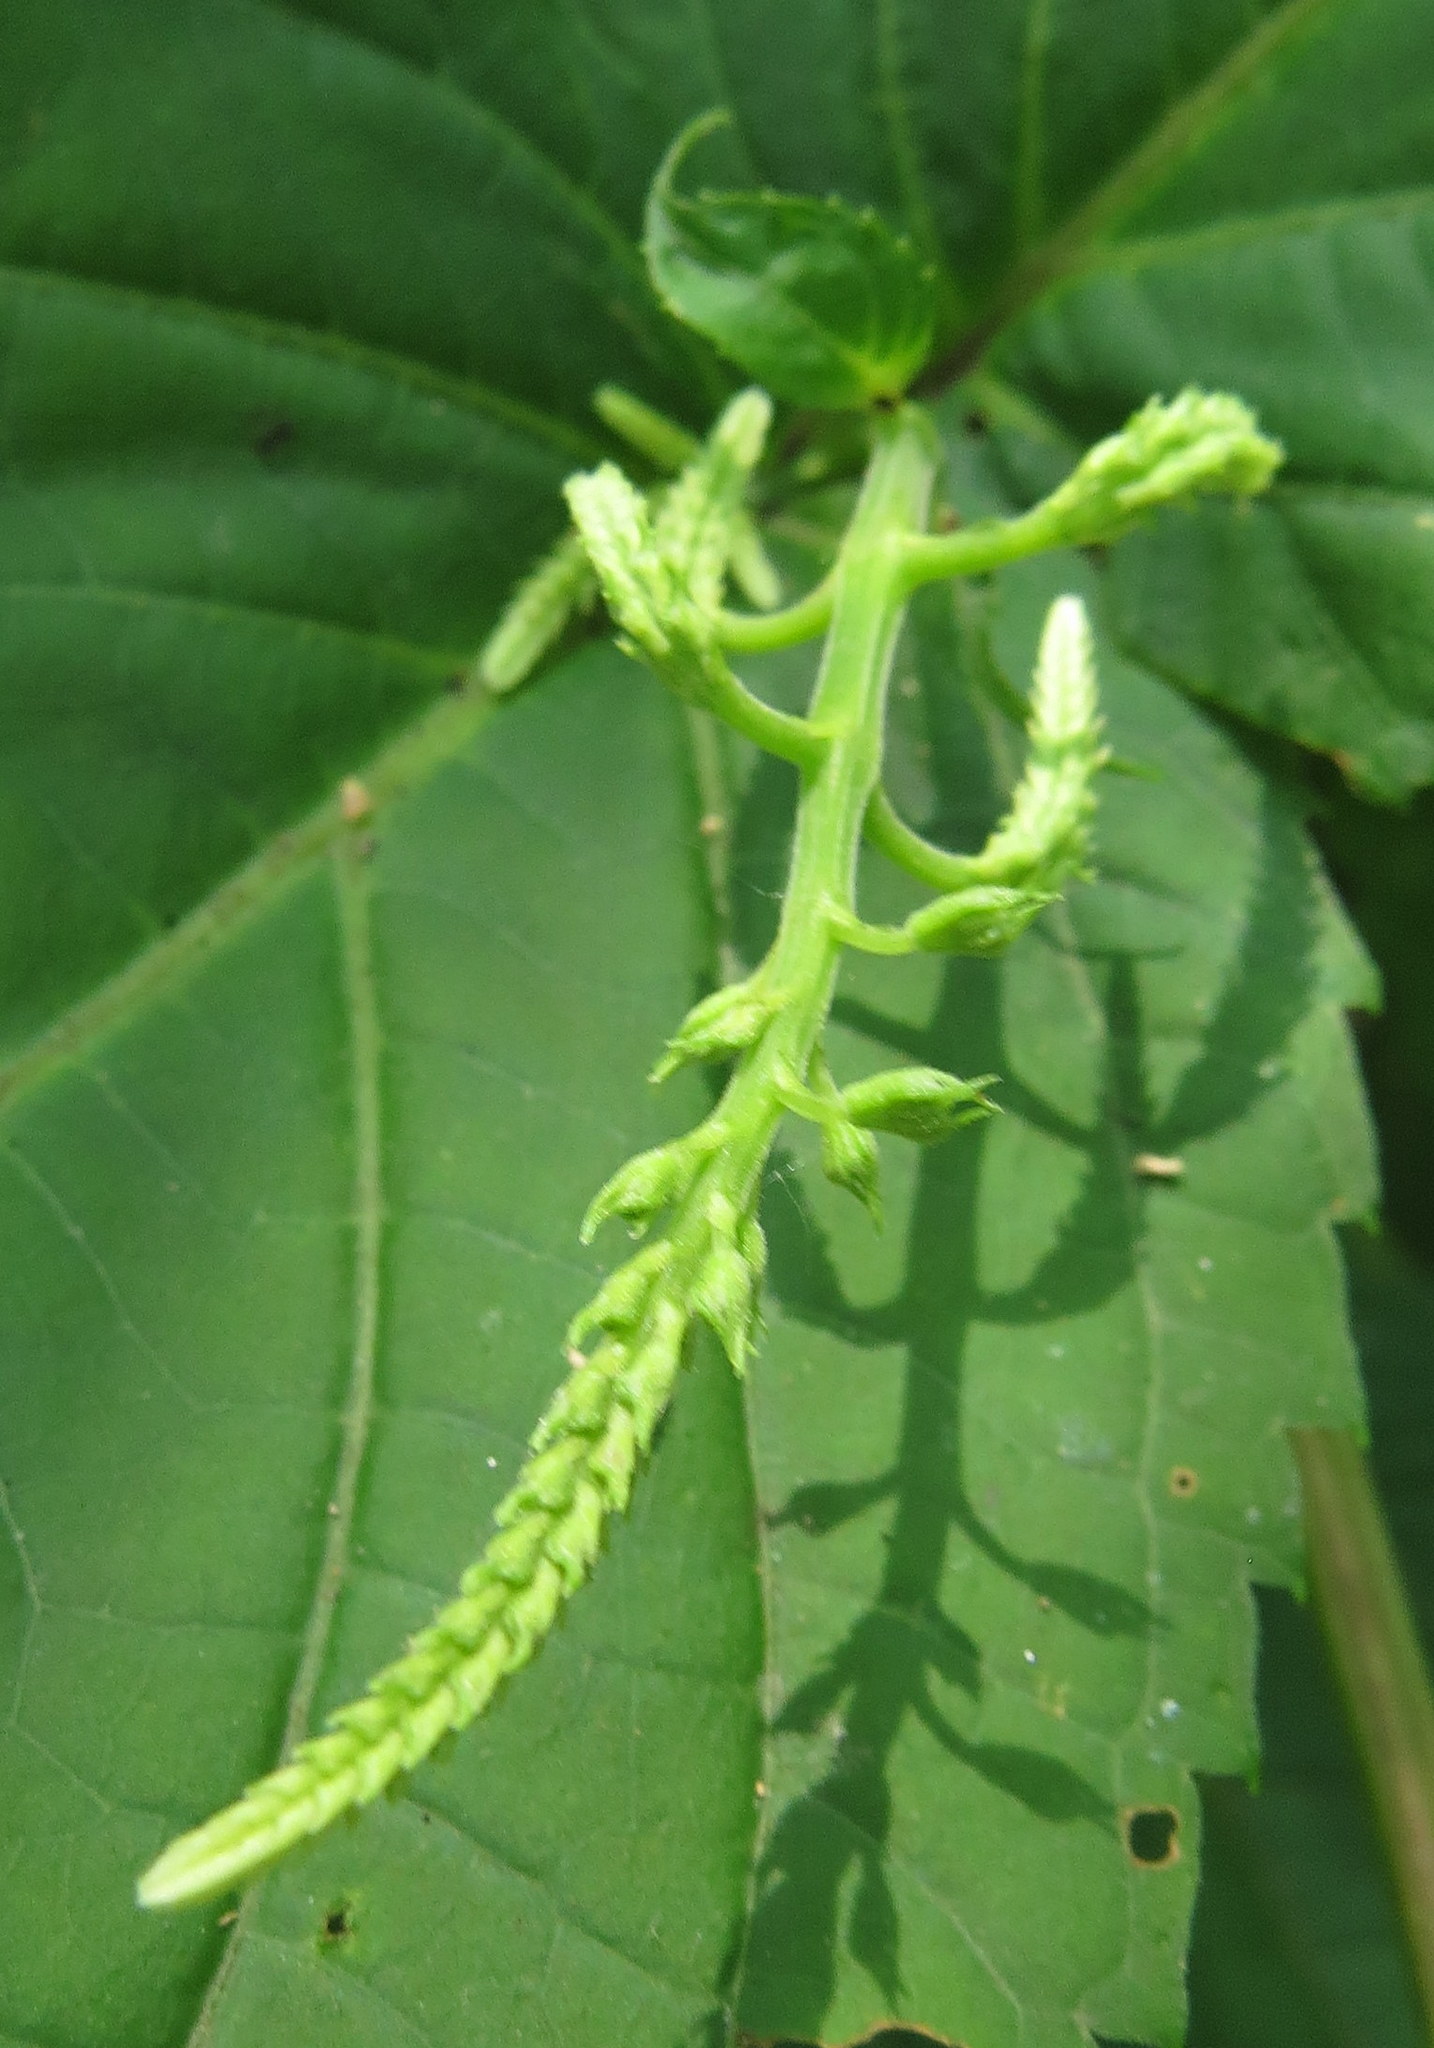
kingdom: Plantae
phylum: Tracheophyta
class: Magnoliopsida
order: Lamiales
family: Lamiaceae
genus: Collinsonia
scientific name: Collinsonia canadensis
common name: Northern horsebalm
